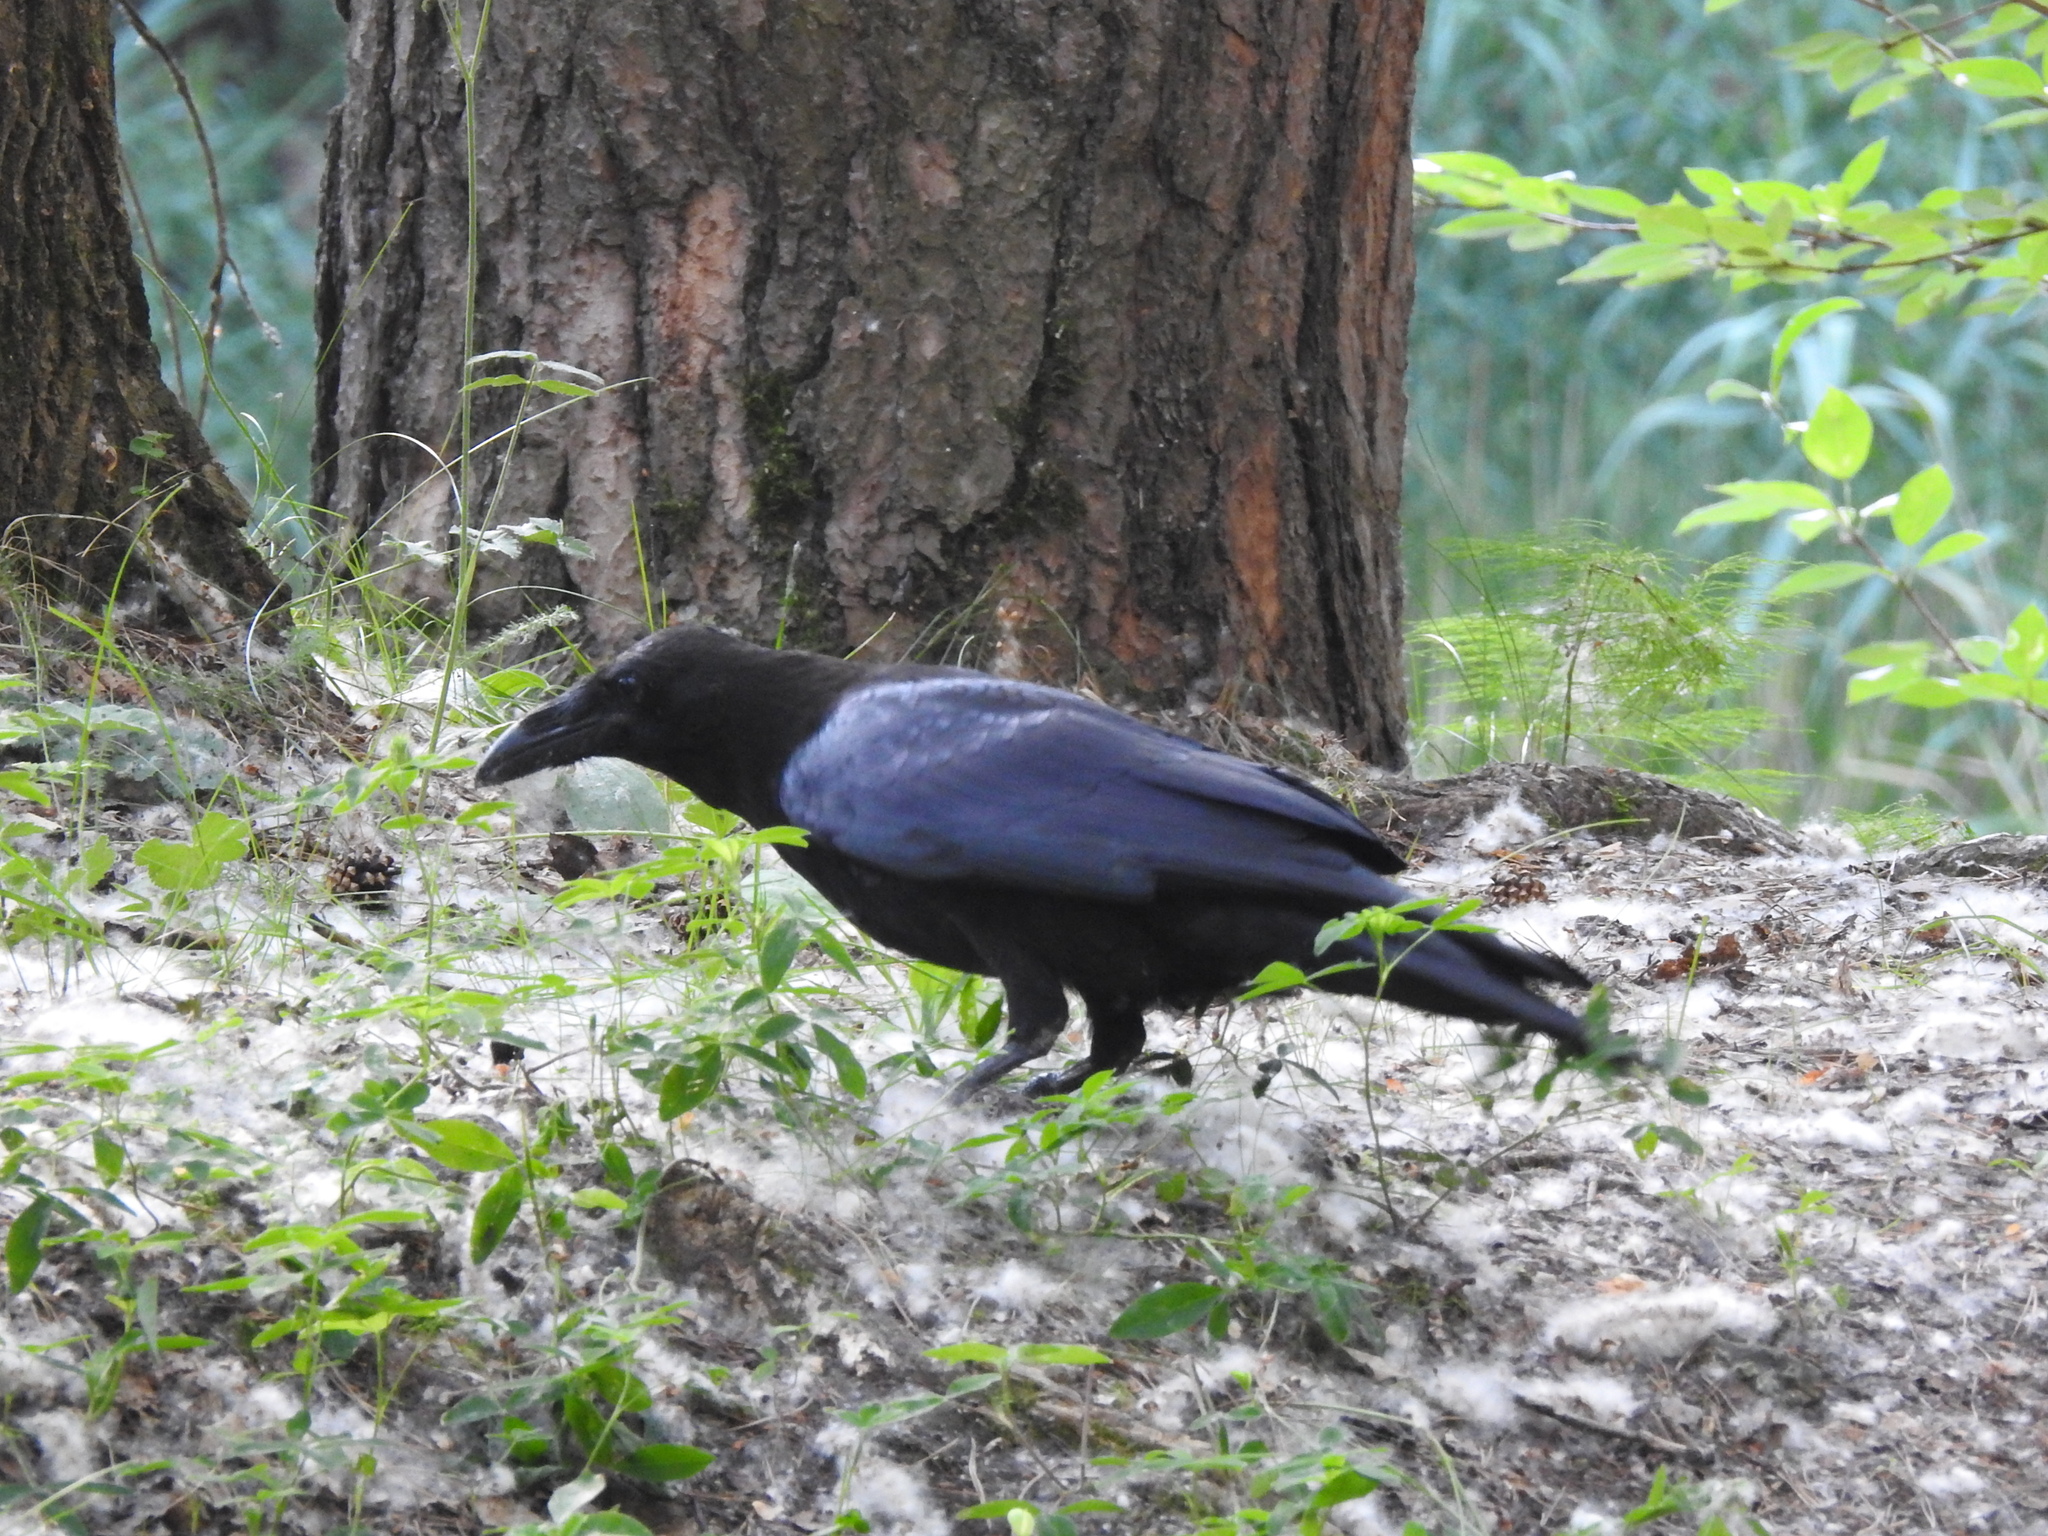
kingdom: Animalia
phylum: Chordata
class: Aves
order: Passeriformes
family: Corvidae
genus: Corvus
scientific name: Corvus corax
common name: Common raven
